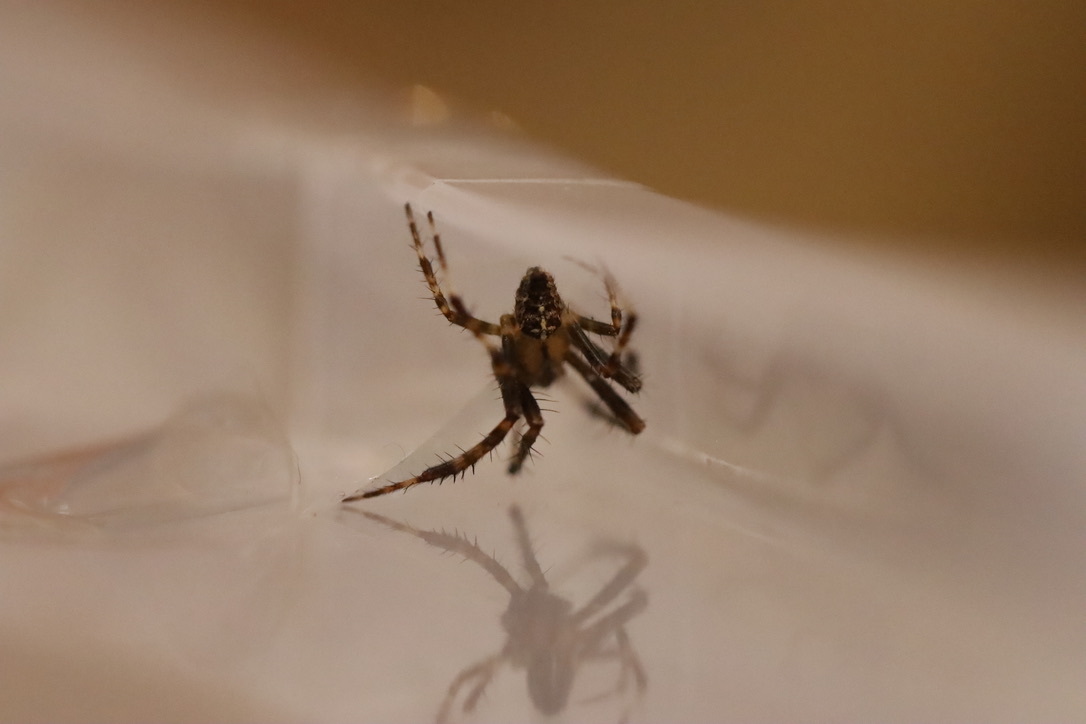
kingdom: Animalia
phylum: Arthropoda
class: Arachnida
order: Araneae
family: Araneidae
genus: Araneus
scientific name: Araneus diadematus
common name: Cross orbweaver
